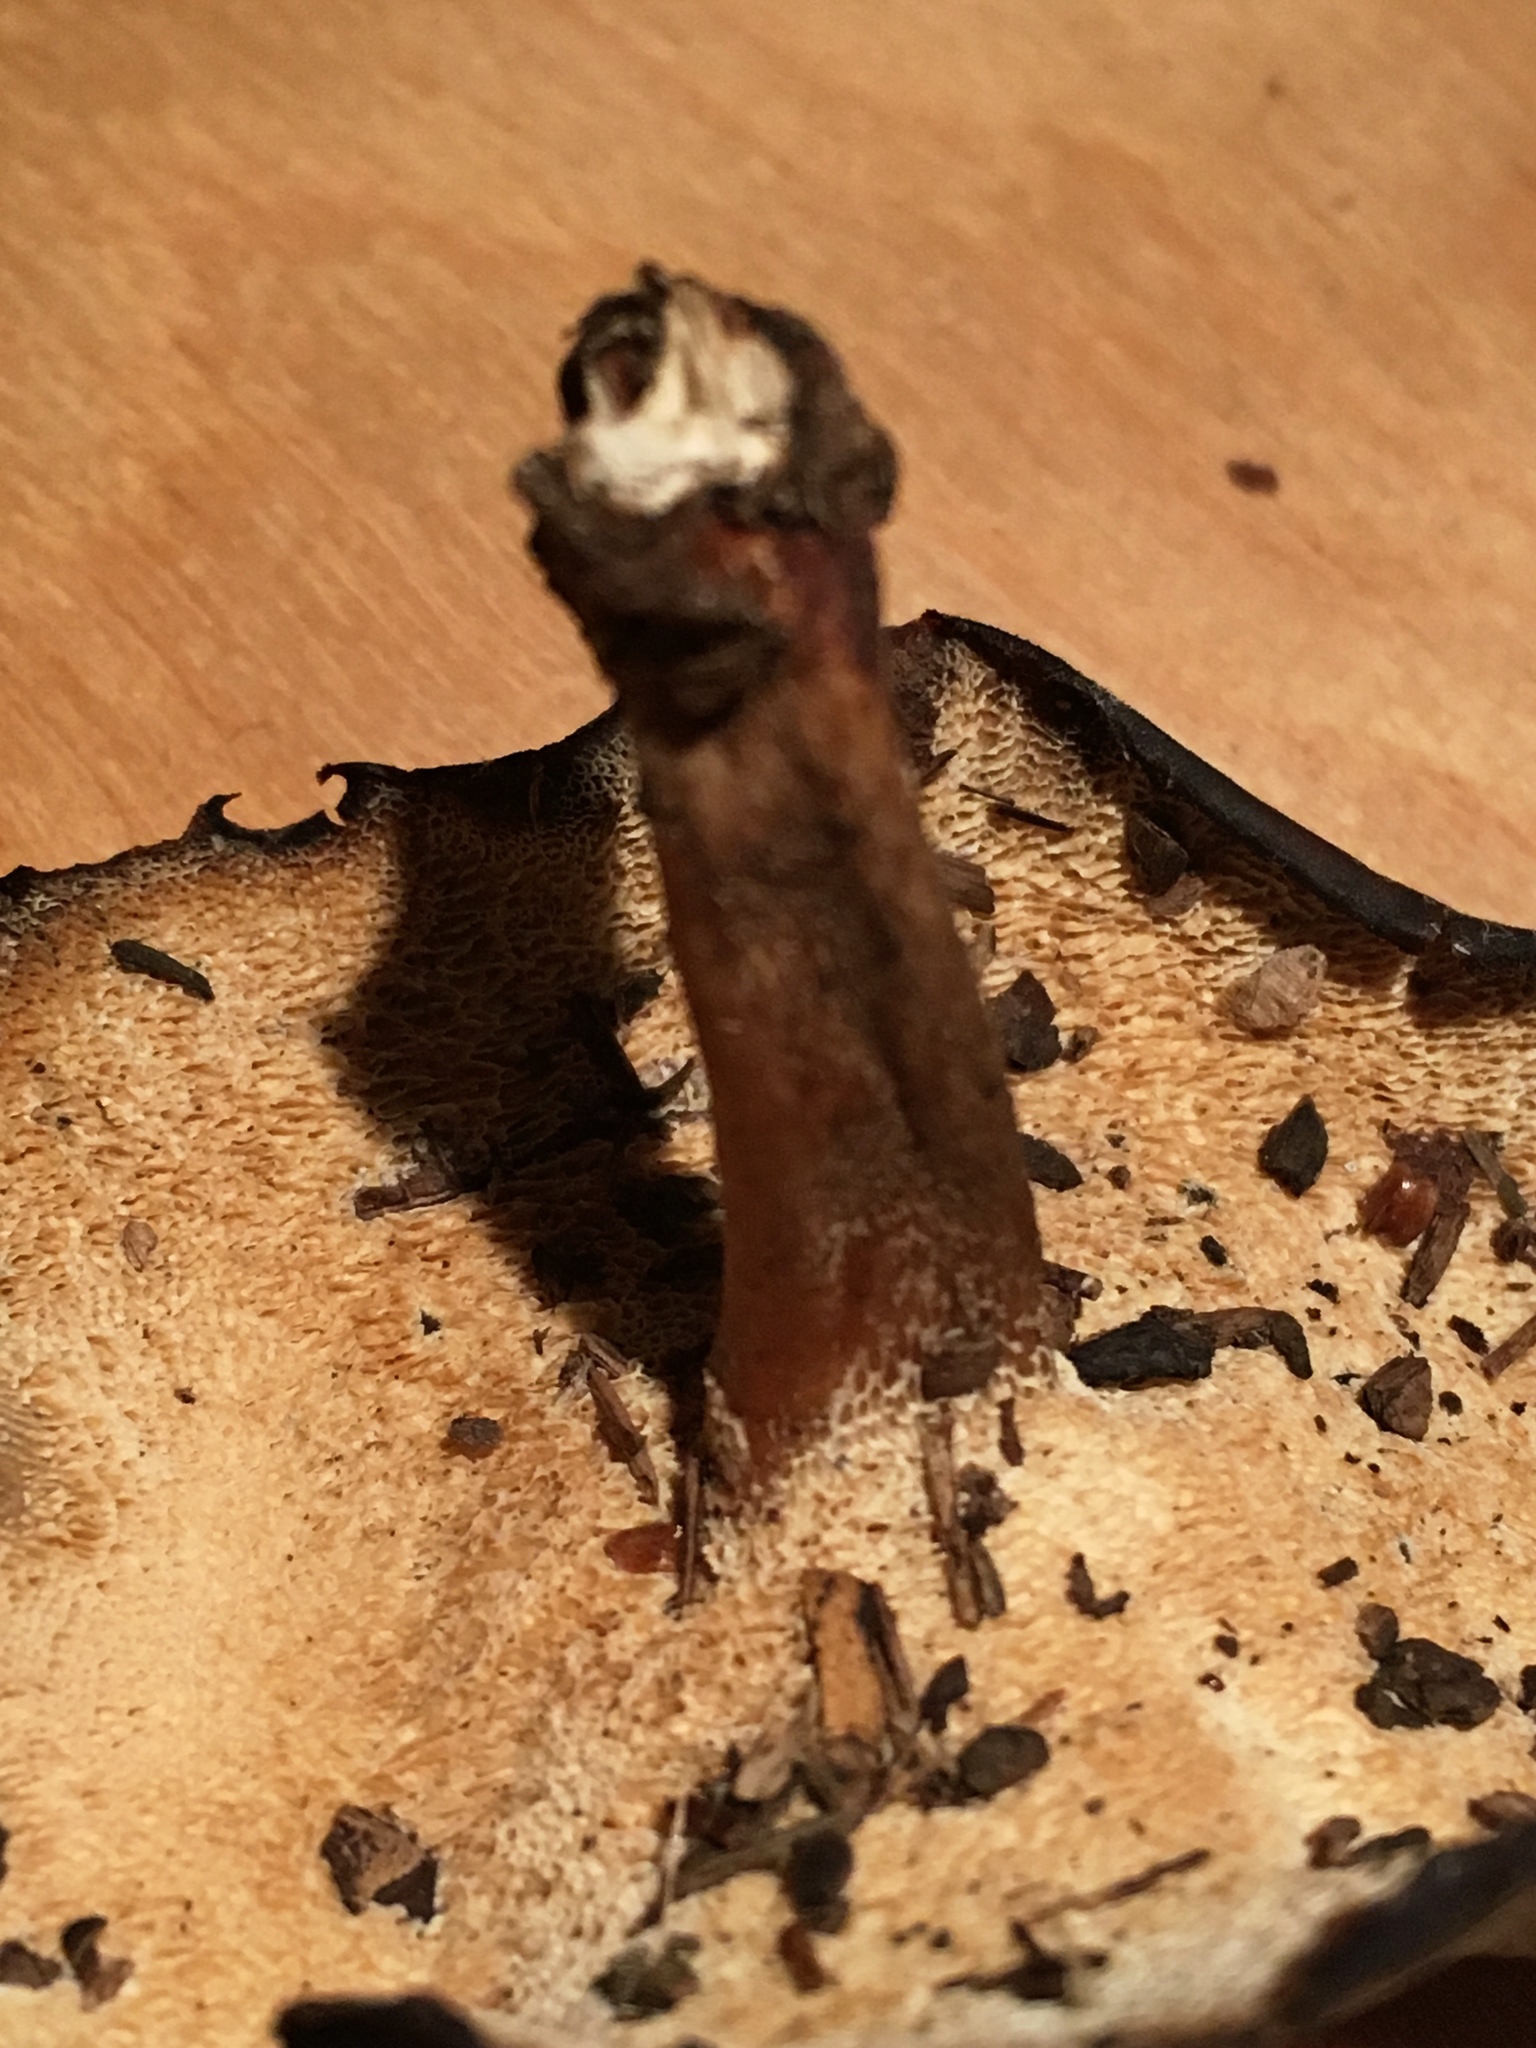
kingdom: Fungi
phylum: Basidiomycota
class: Agaricomycetes
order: Polyporales
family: Polyporaceae
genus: Lentinus
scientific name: Lentinus brumalis
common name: Winter polypore
